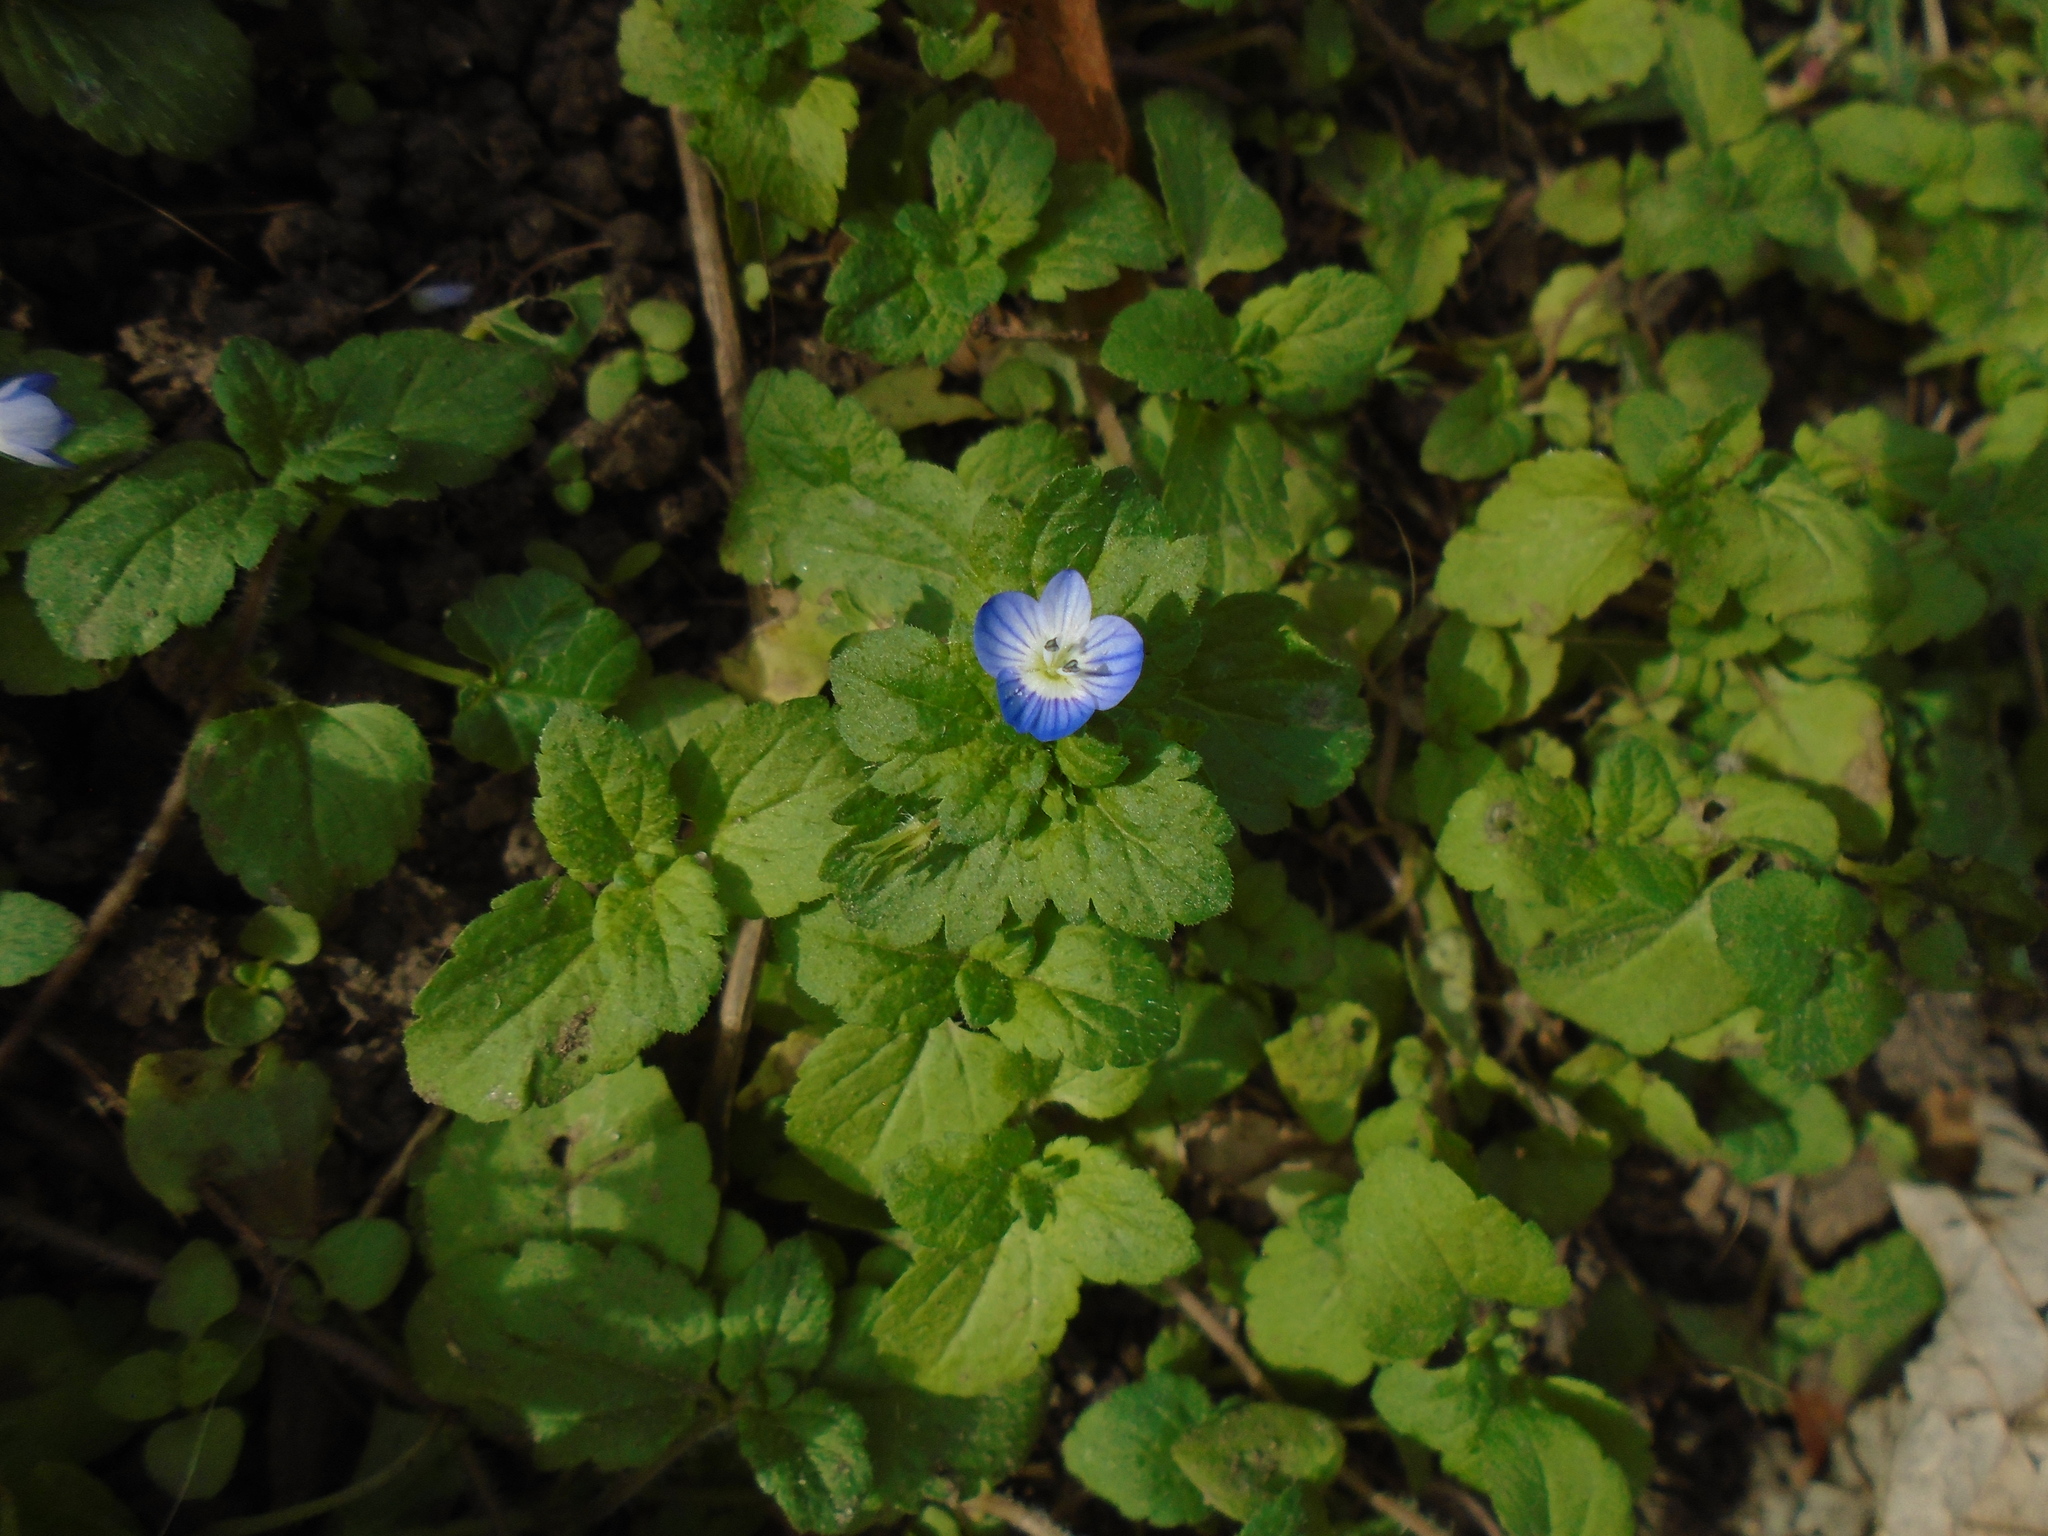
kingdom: Plantae
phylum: Tracheophyta
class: Magnoliopsida
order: Lamiales
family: Plantaginaceae
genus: Veronica
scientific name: Veronica persica
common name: Common field-speedwell
